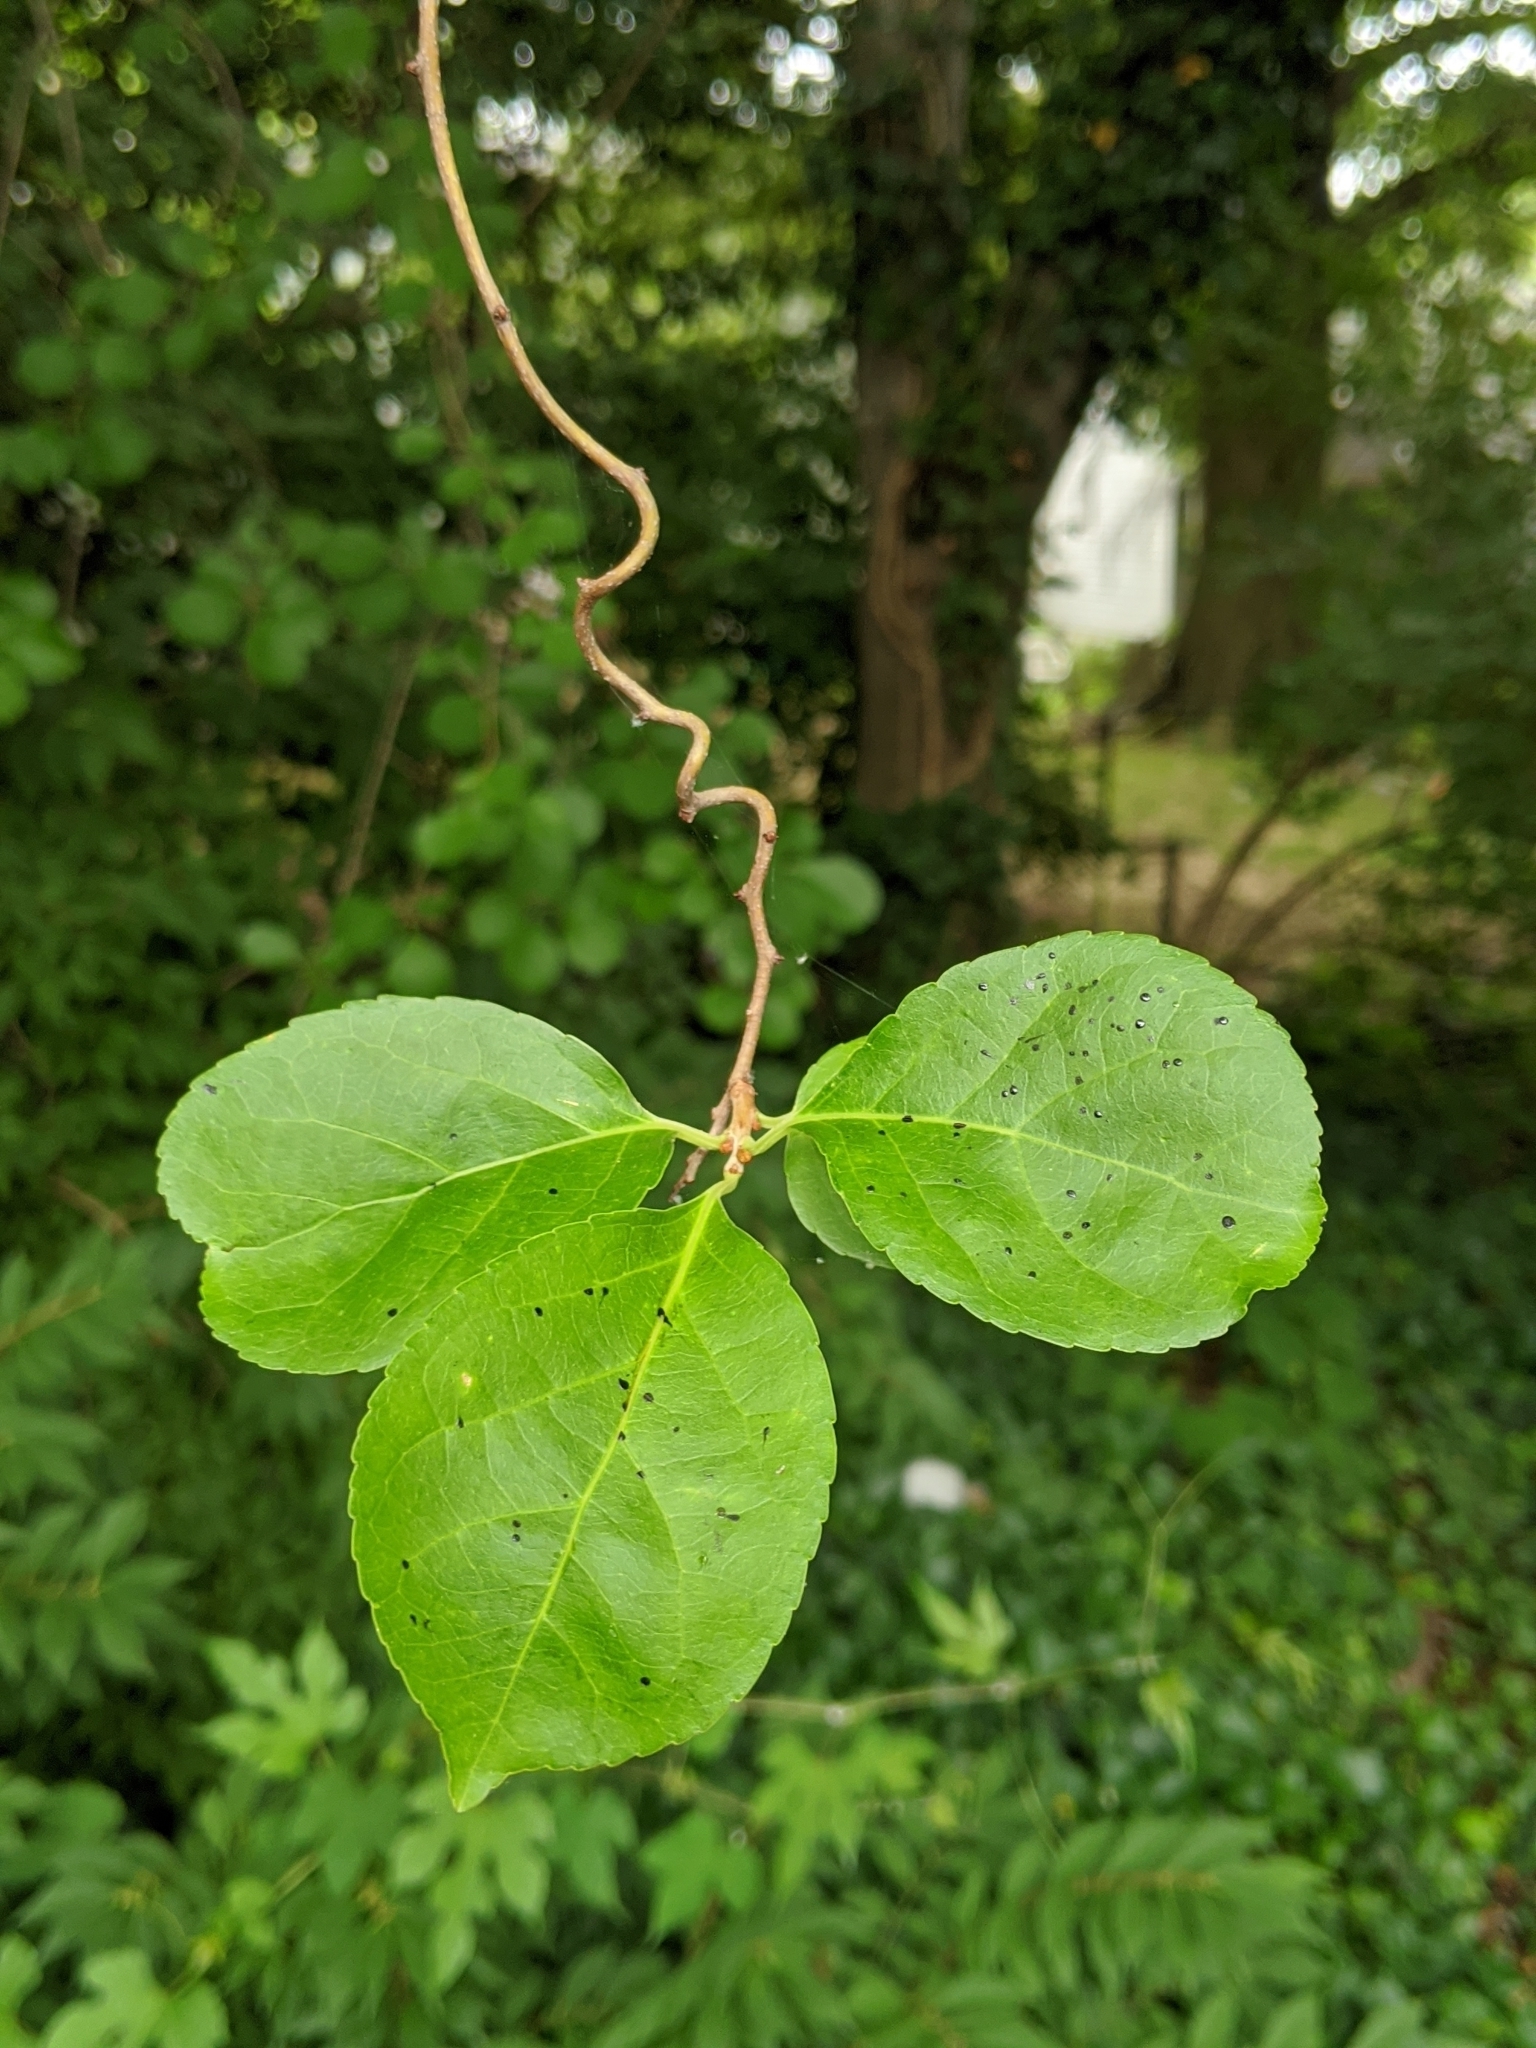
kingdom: Plantae
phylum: Tracheophyta
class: Magnoliopsida
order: Celastrales
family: Celastraceae
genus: Celastrus
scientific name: Celastrus orbiculatus
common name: Oriental bittersweet
